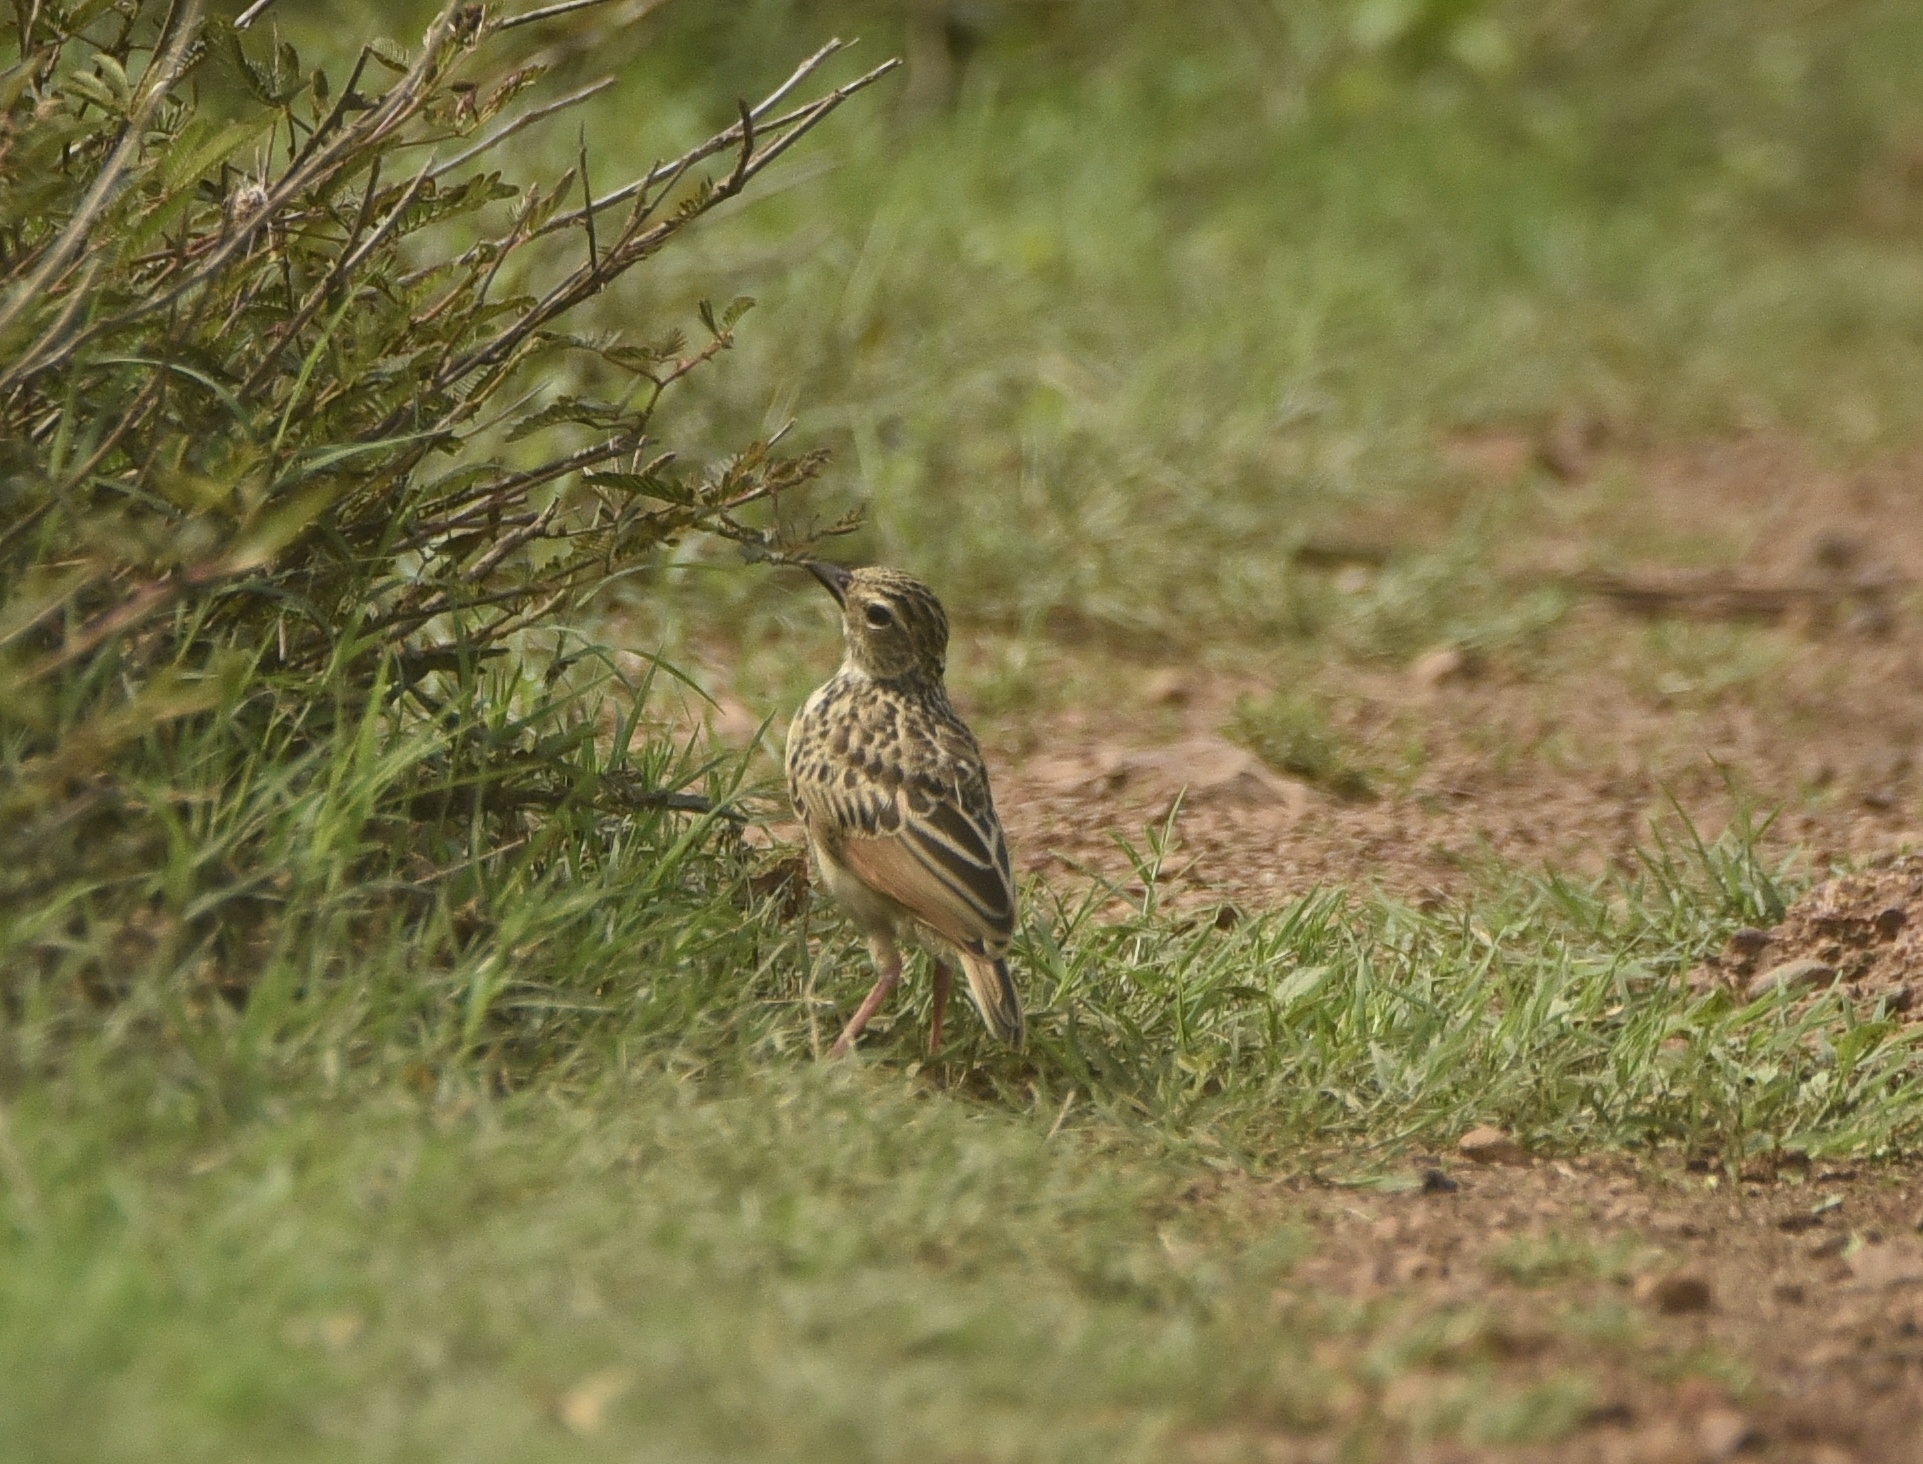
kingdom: Animalia
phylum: Chordata
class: Aves
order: Passeriformes
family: Alaudidae
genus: Mirafra
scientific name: Mirafra affinis
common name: Jerdon's bushlark
